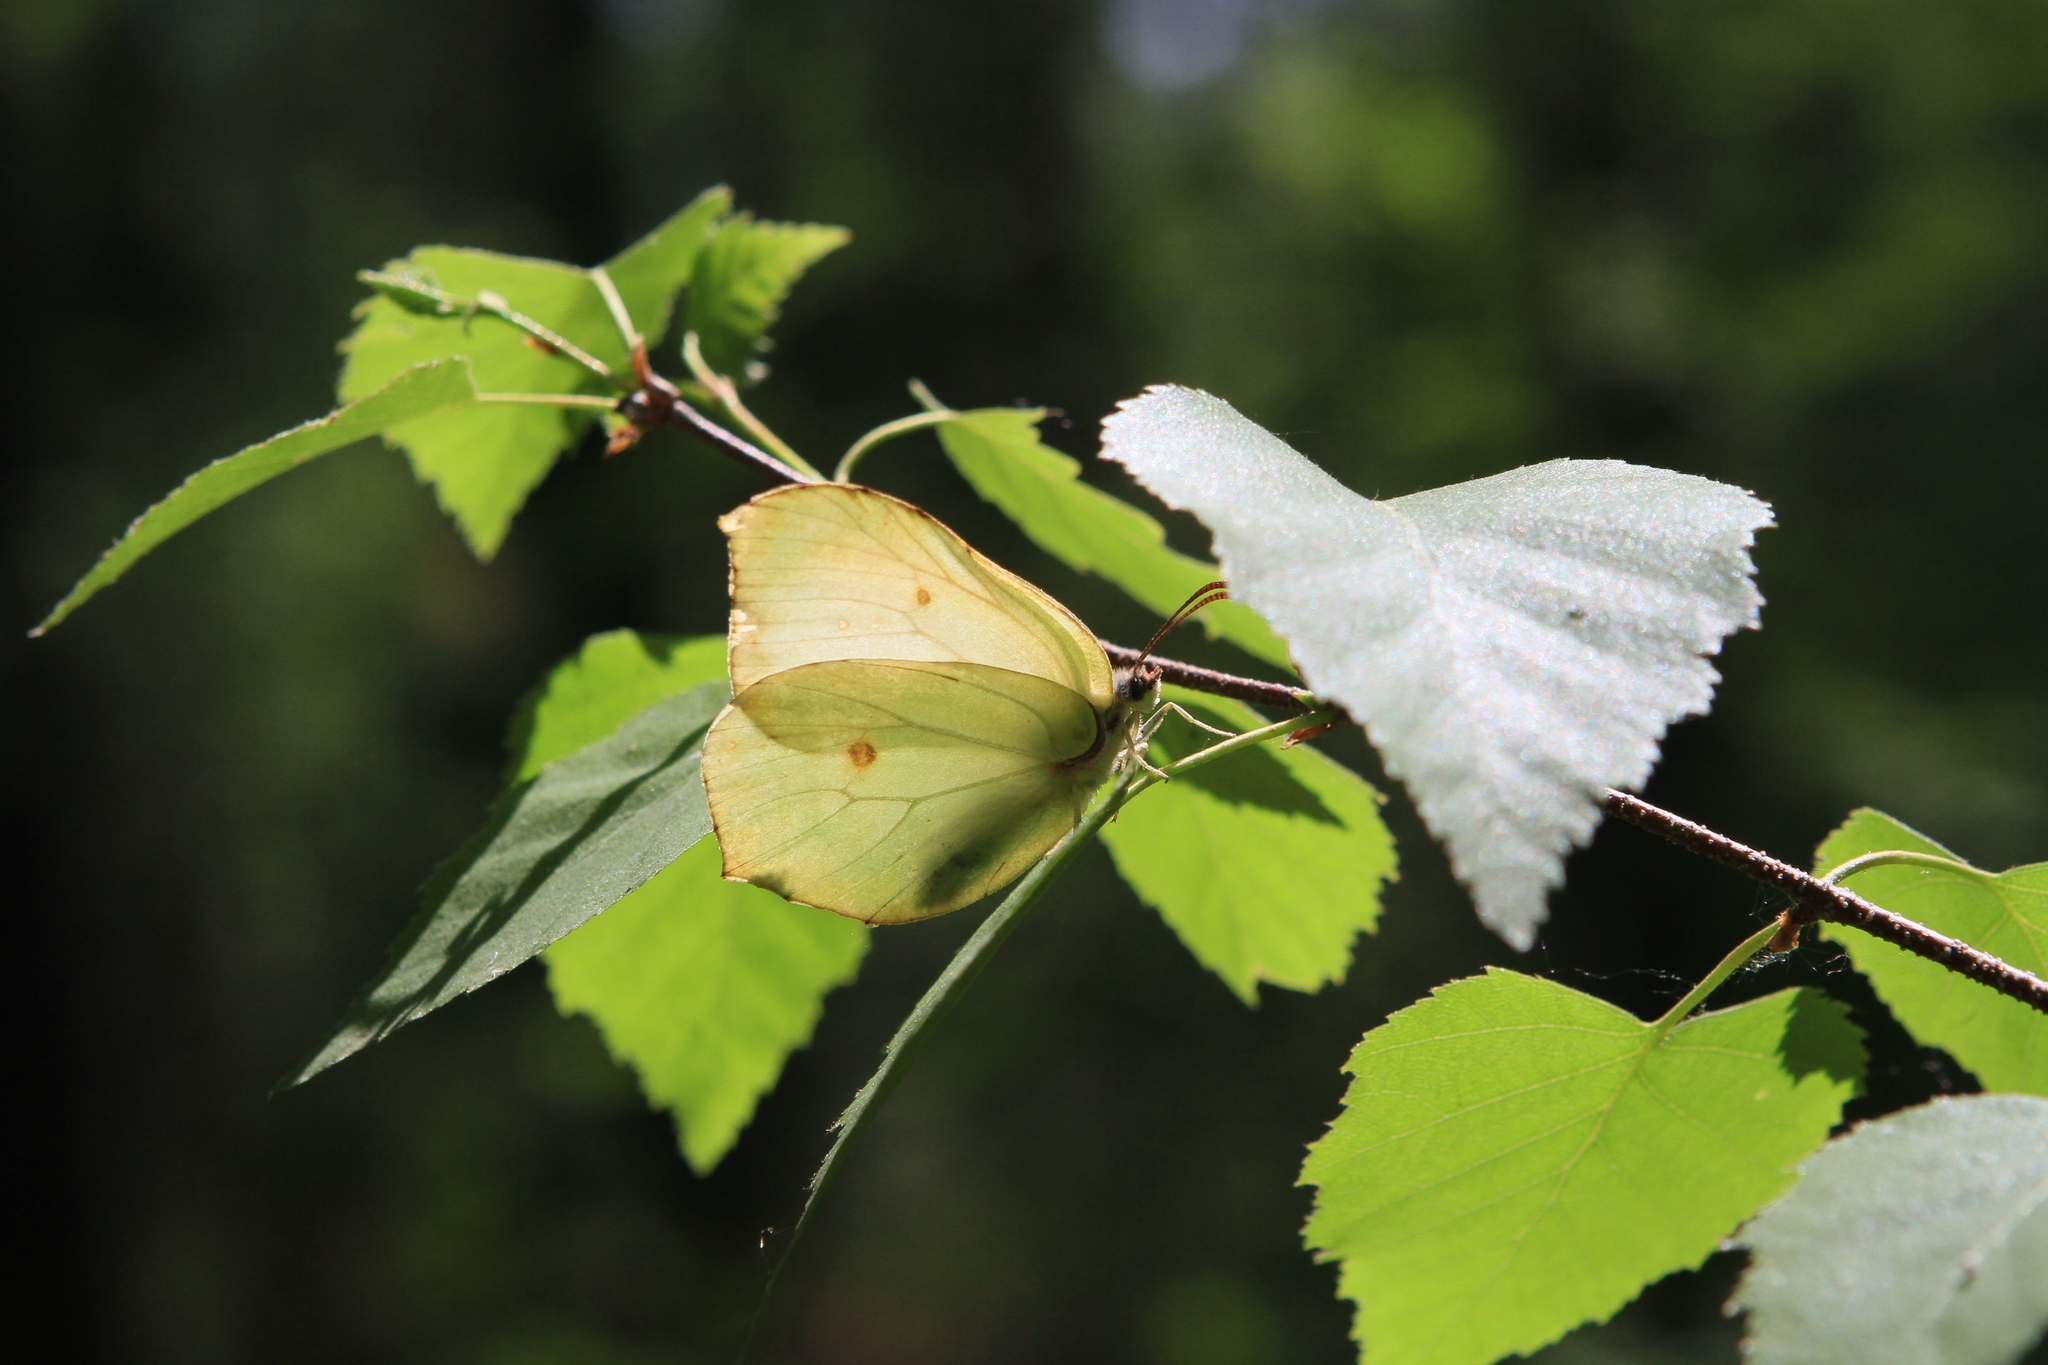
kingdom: Animalia
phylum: Arthropoda
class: Insecta
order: Lepidoptera
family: Pieridae
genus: Gonepteryx
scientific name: Gonepteryx rhamni
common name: Brimstone
